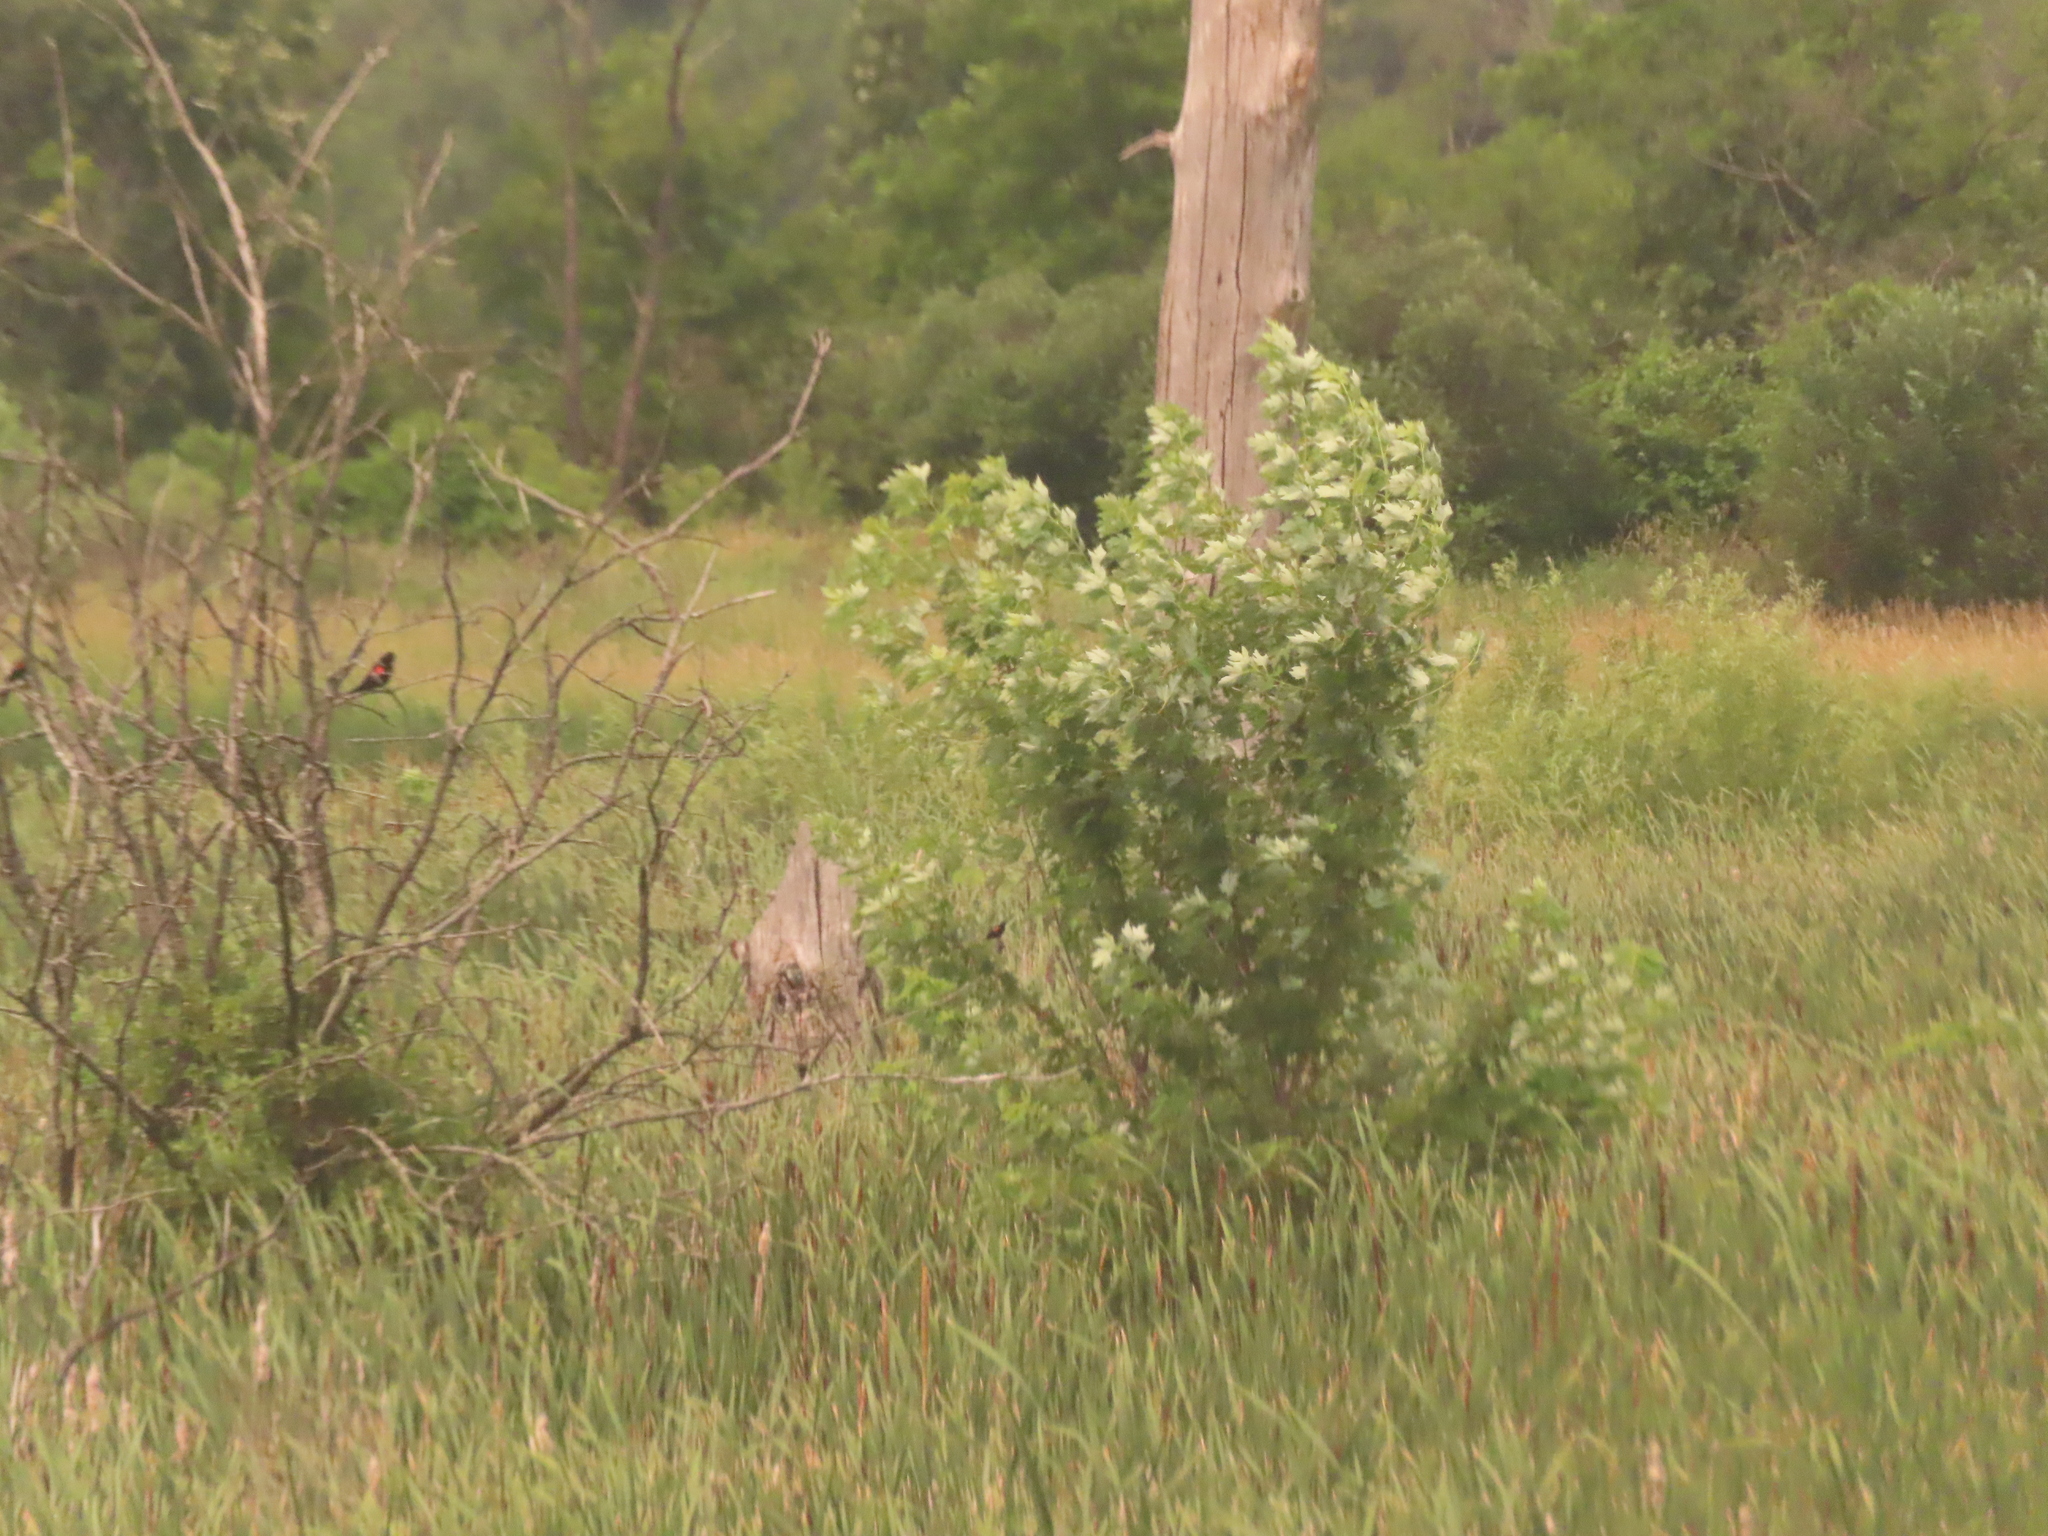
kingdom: Plantae
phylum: Tracheophyta
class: Magnoliopsida
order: Sapindales
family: Sapindaceae
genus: Acer
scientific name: Acer saccharinum
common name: Silver maple
